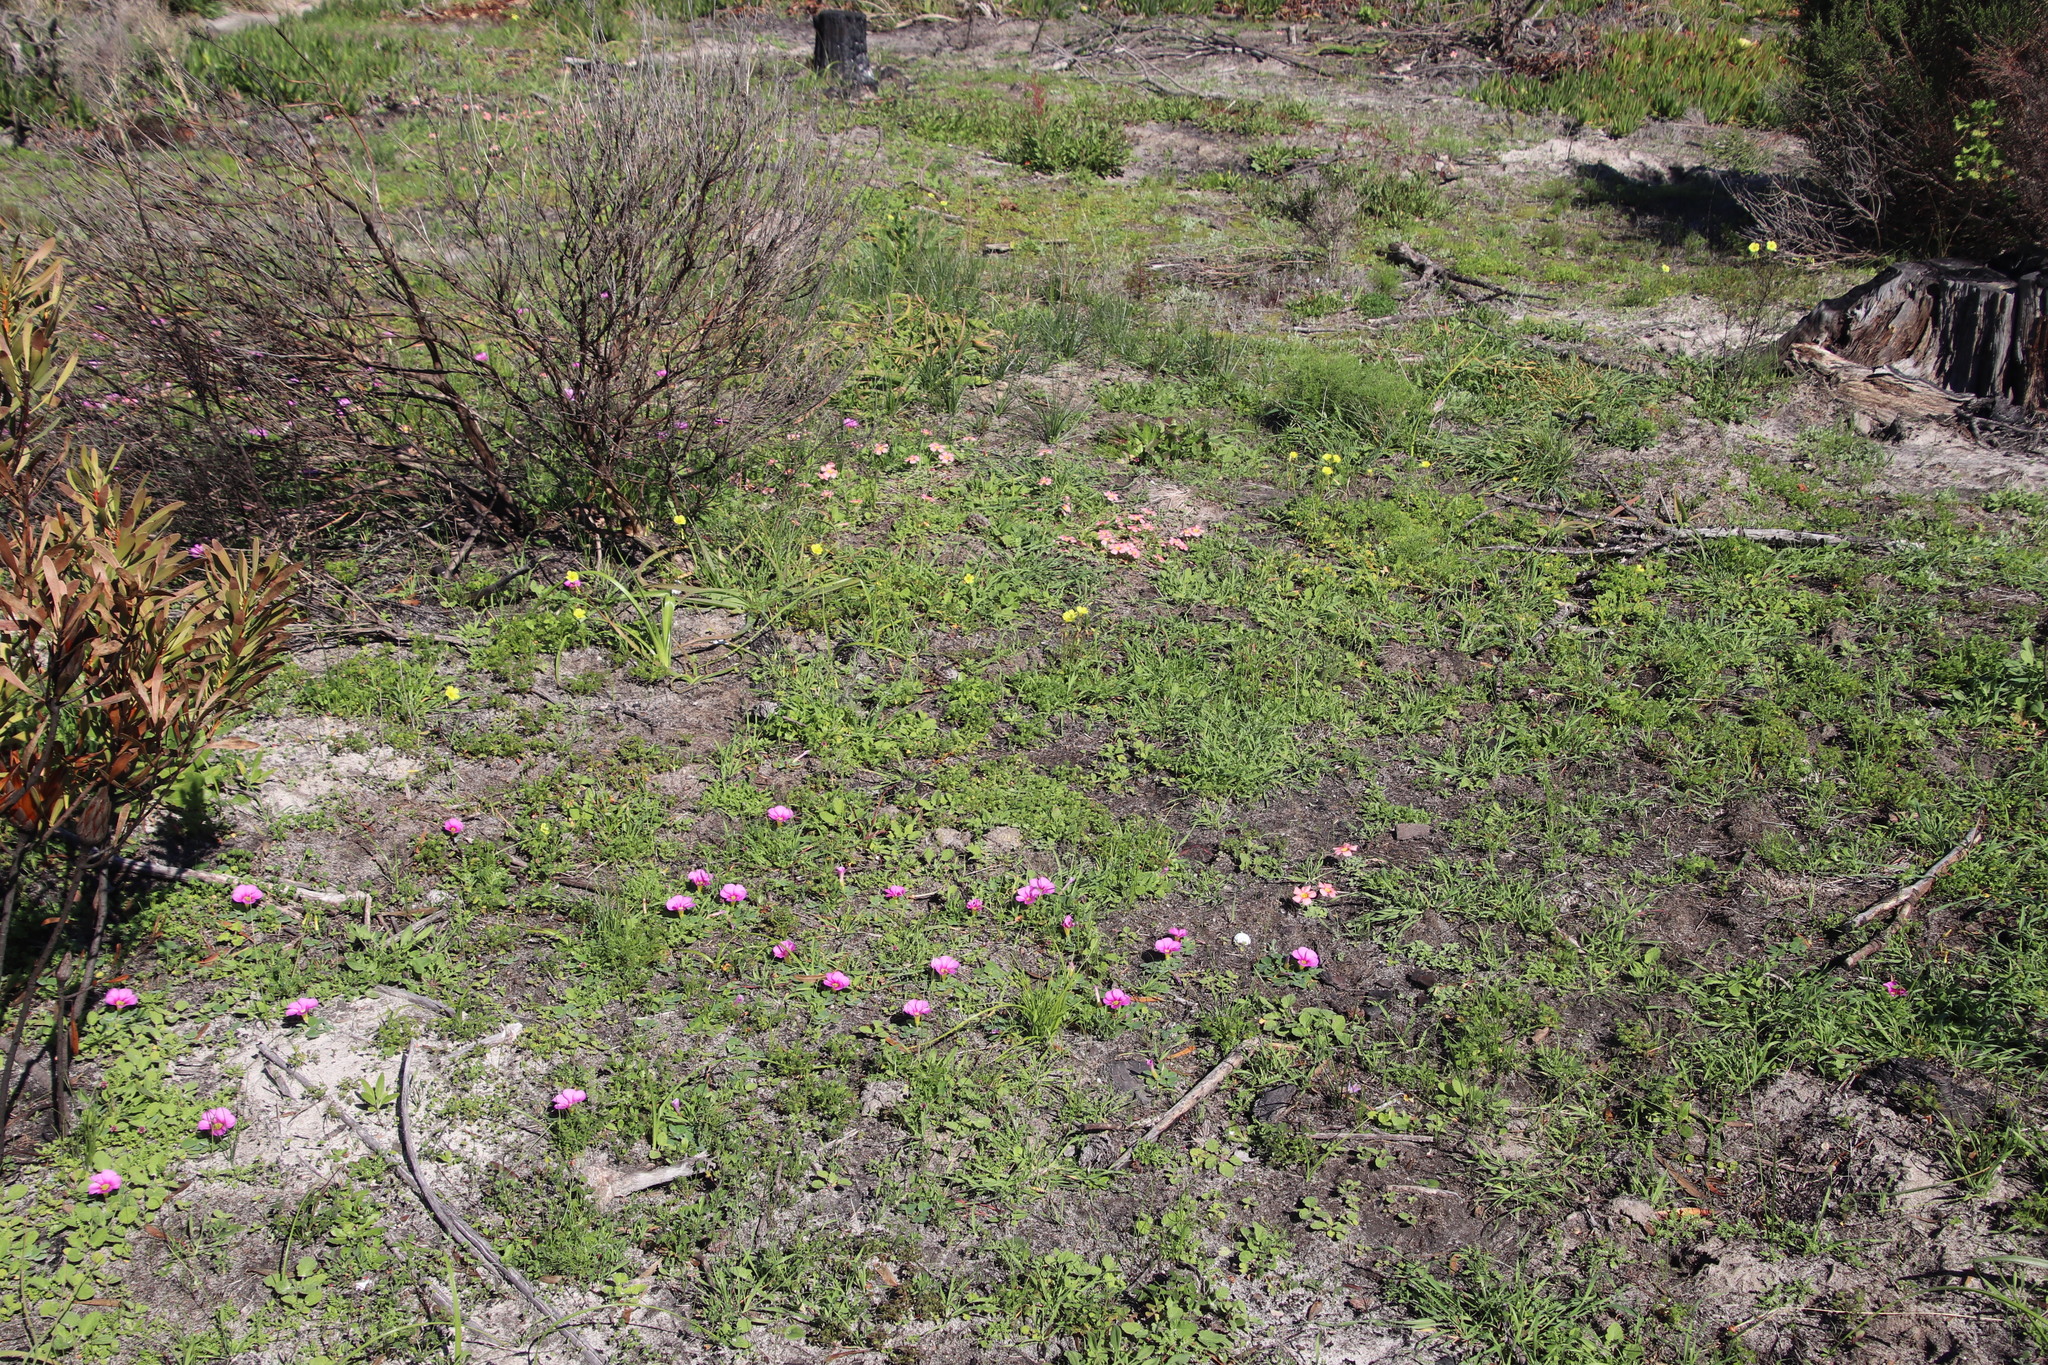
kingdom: Plantae
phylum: Tracheophyta
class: Magnoliopsida
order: Oxalidales
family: Oxalidaceae
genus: Oxalis
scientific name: Oxalis purpurea
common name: Purple woodsorrel
